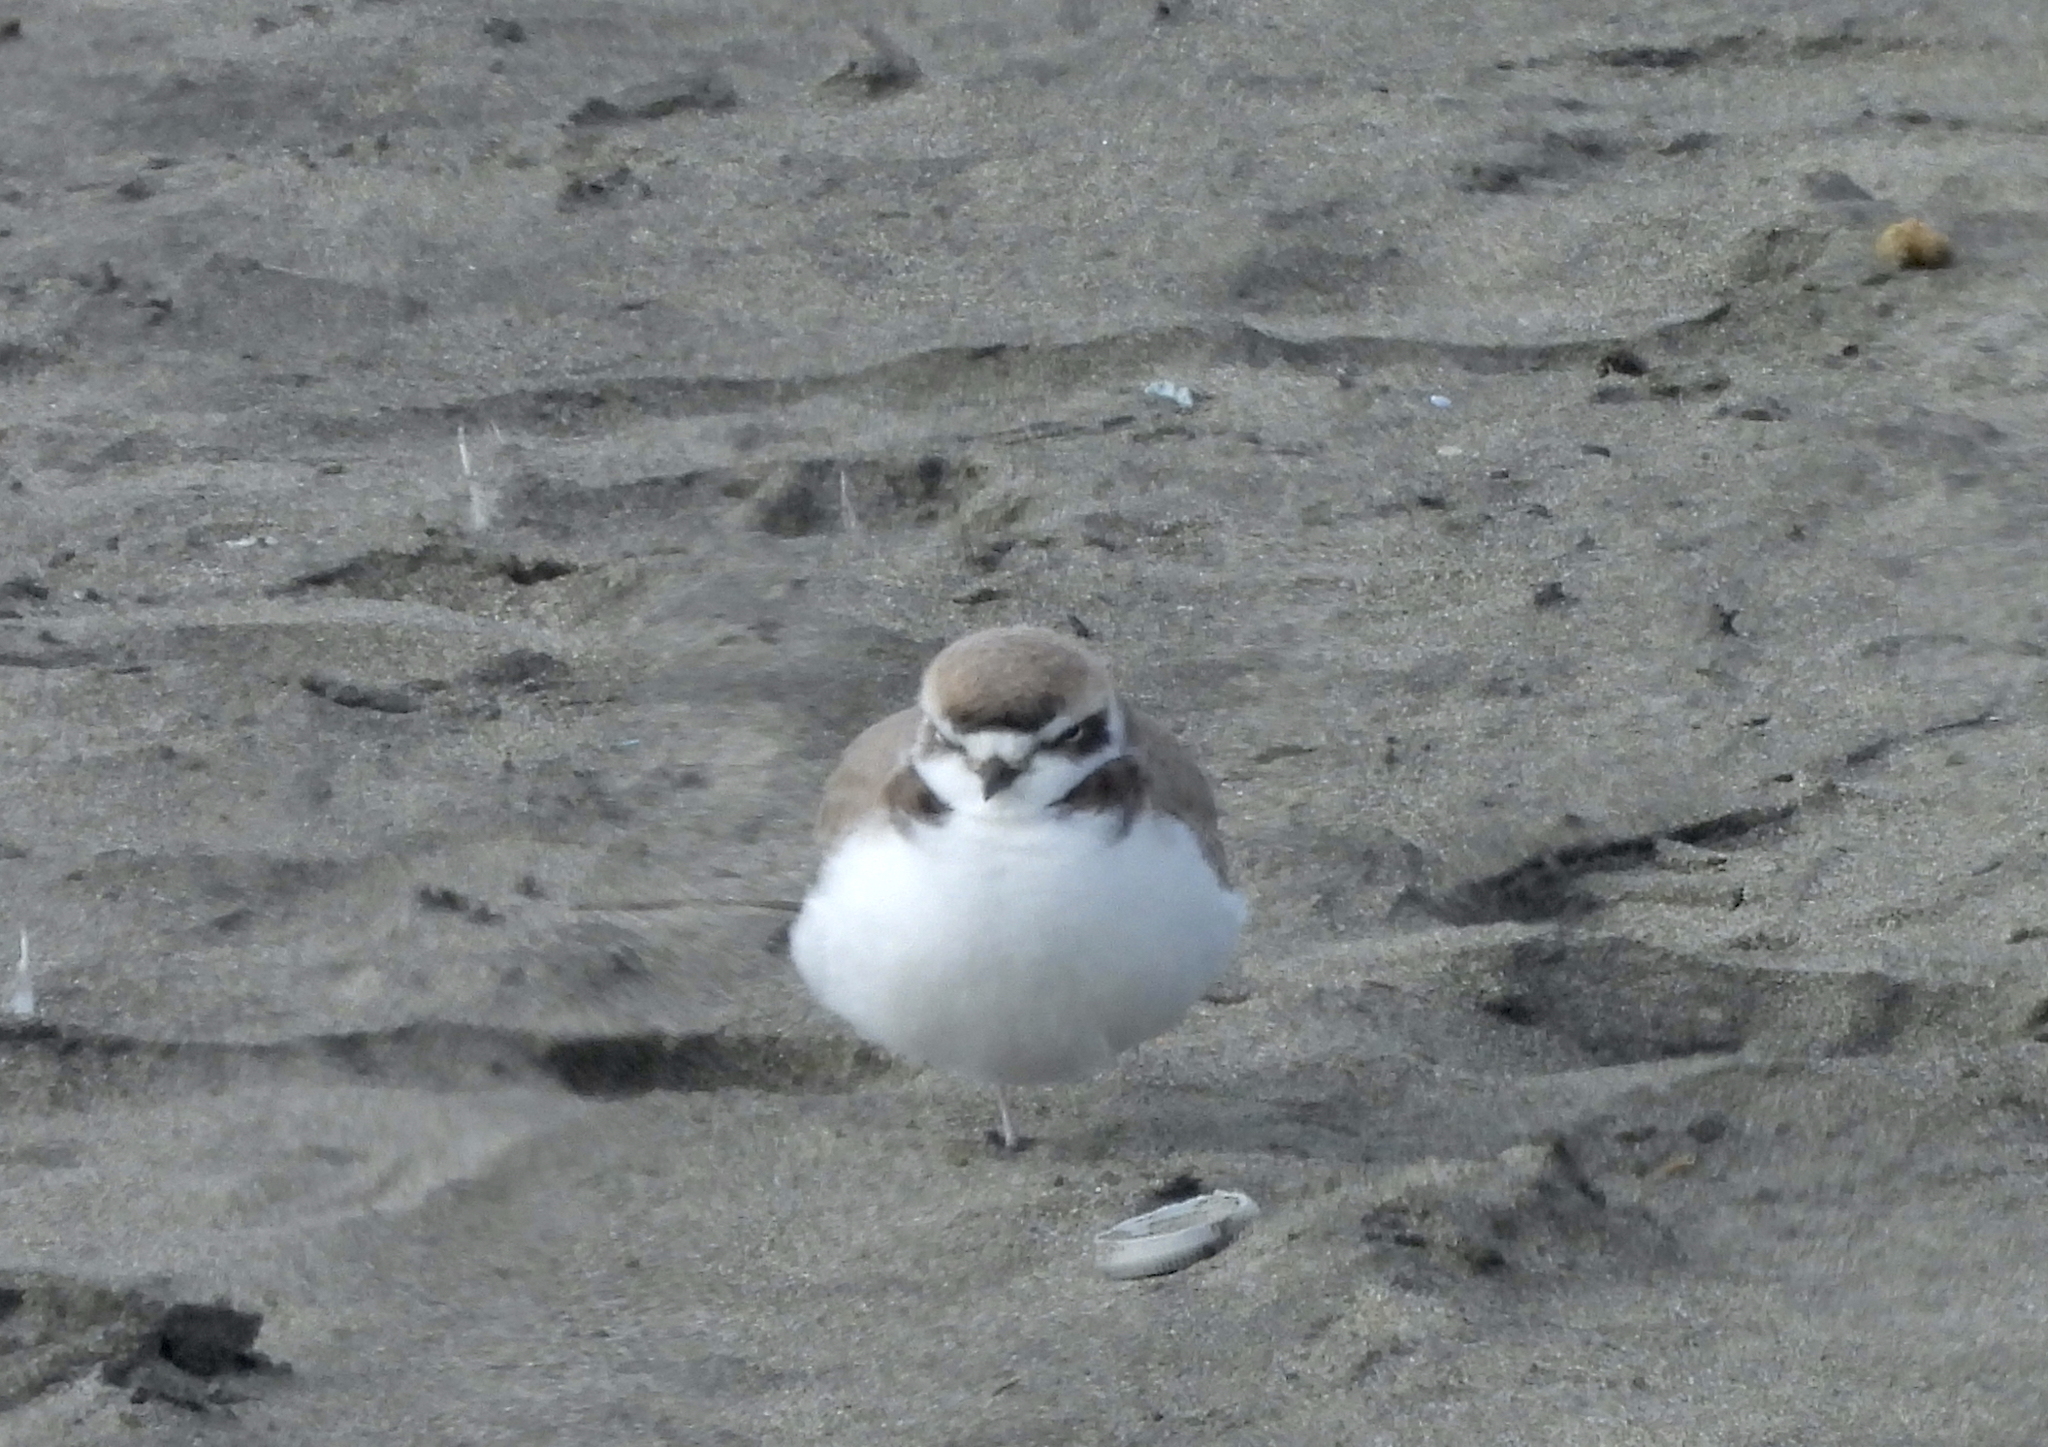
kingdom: Animalia
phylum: Chordata
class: Aves
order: Charadriiformes
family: Charadriidae
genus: Anarhynchus
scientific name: Anarhynchus
